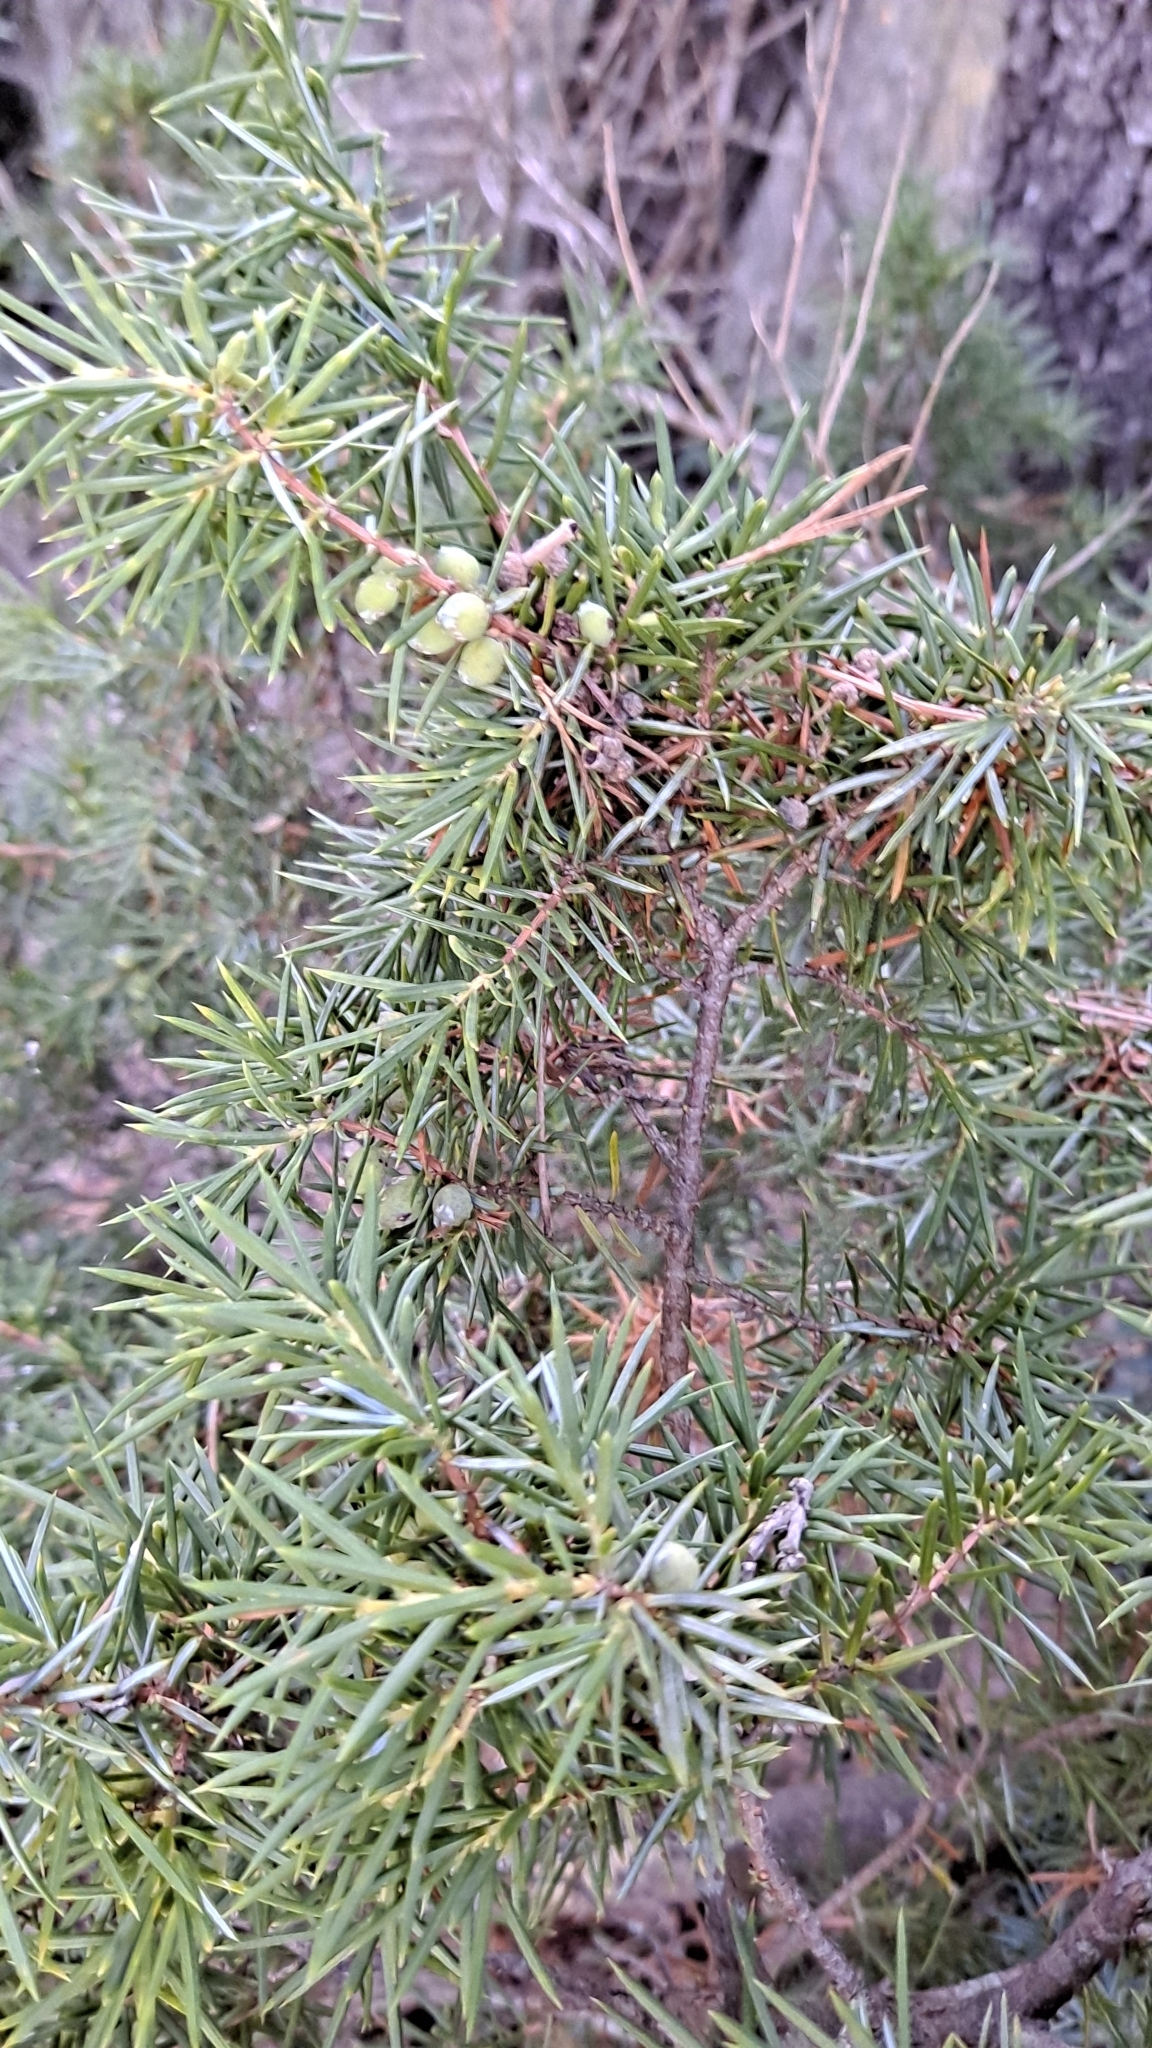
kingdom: Plantae
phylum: Tracheophyta
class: Pinopsida
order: Pinales
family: Cupressaceae
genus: Juniperus
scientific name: Juniperus communis
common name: Common juniper
